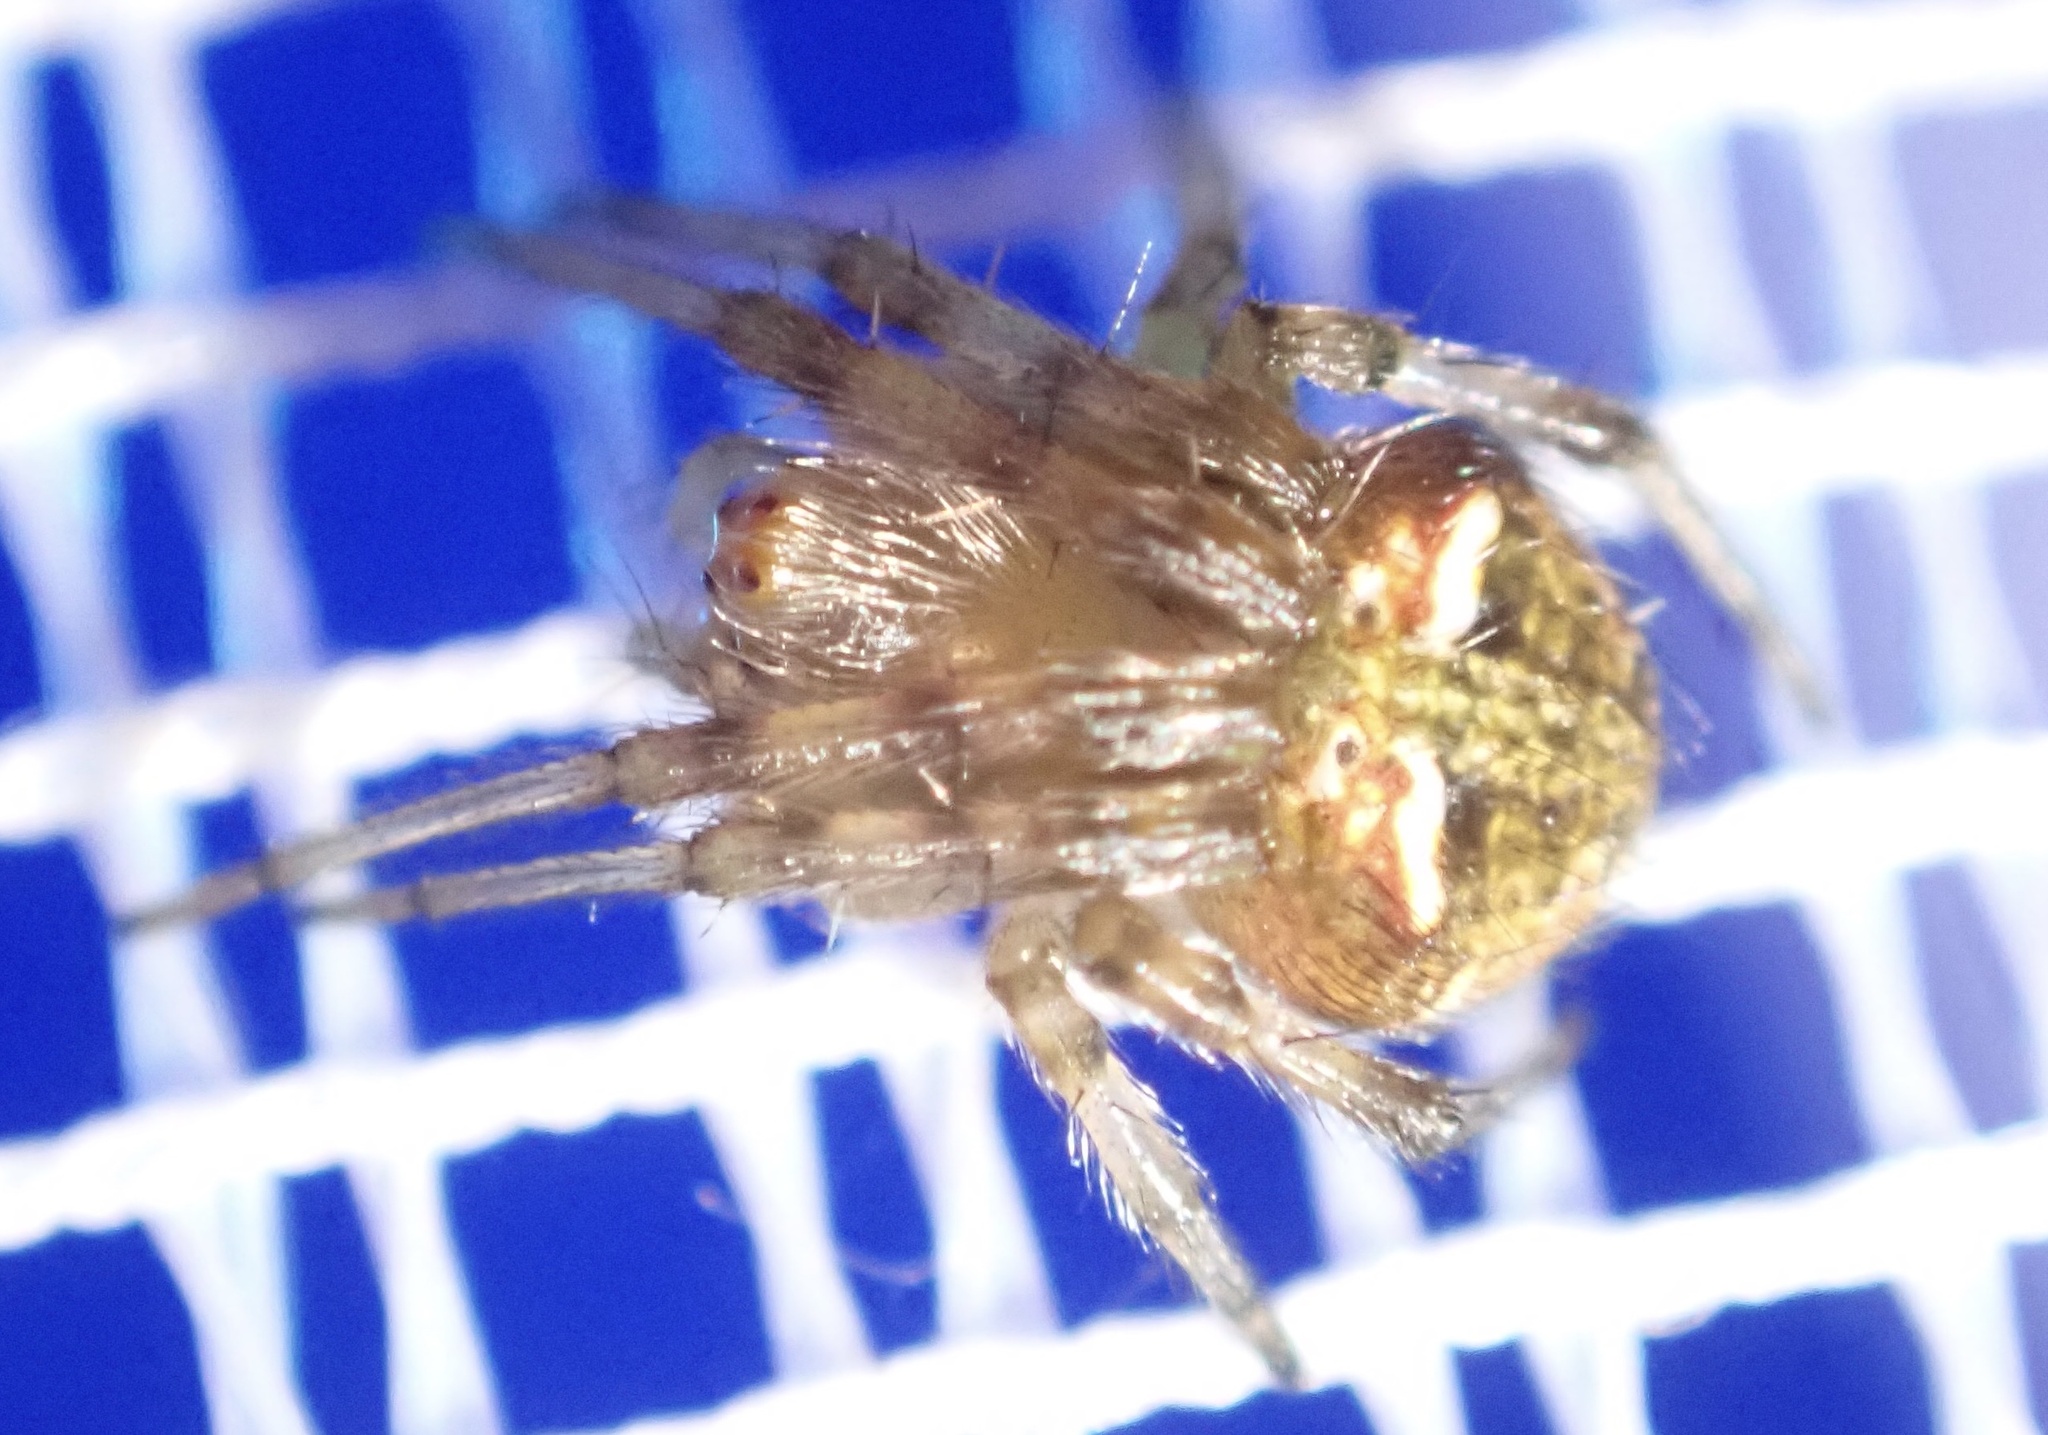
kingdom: Animalia
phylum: Arthropoda
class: Arachnida
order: Araneae
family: Araneidae
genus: Araneus
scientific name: Araneus albotriangulus
